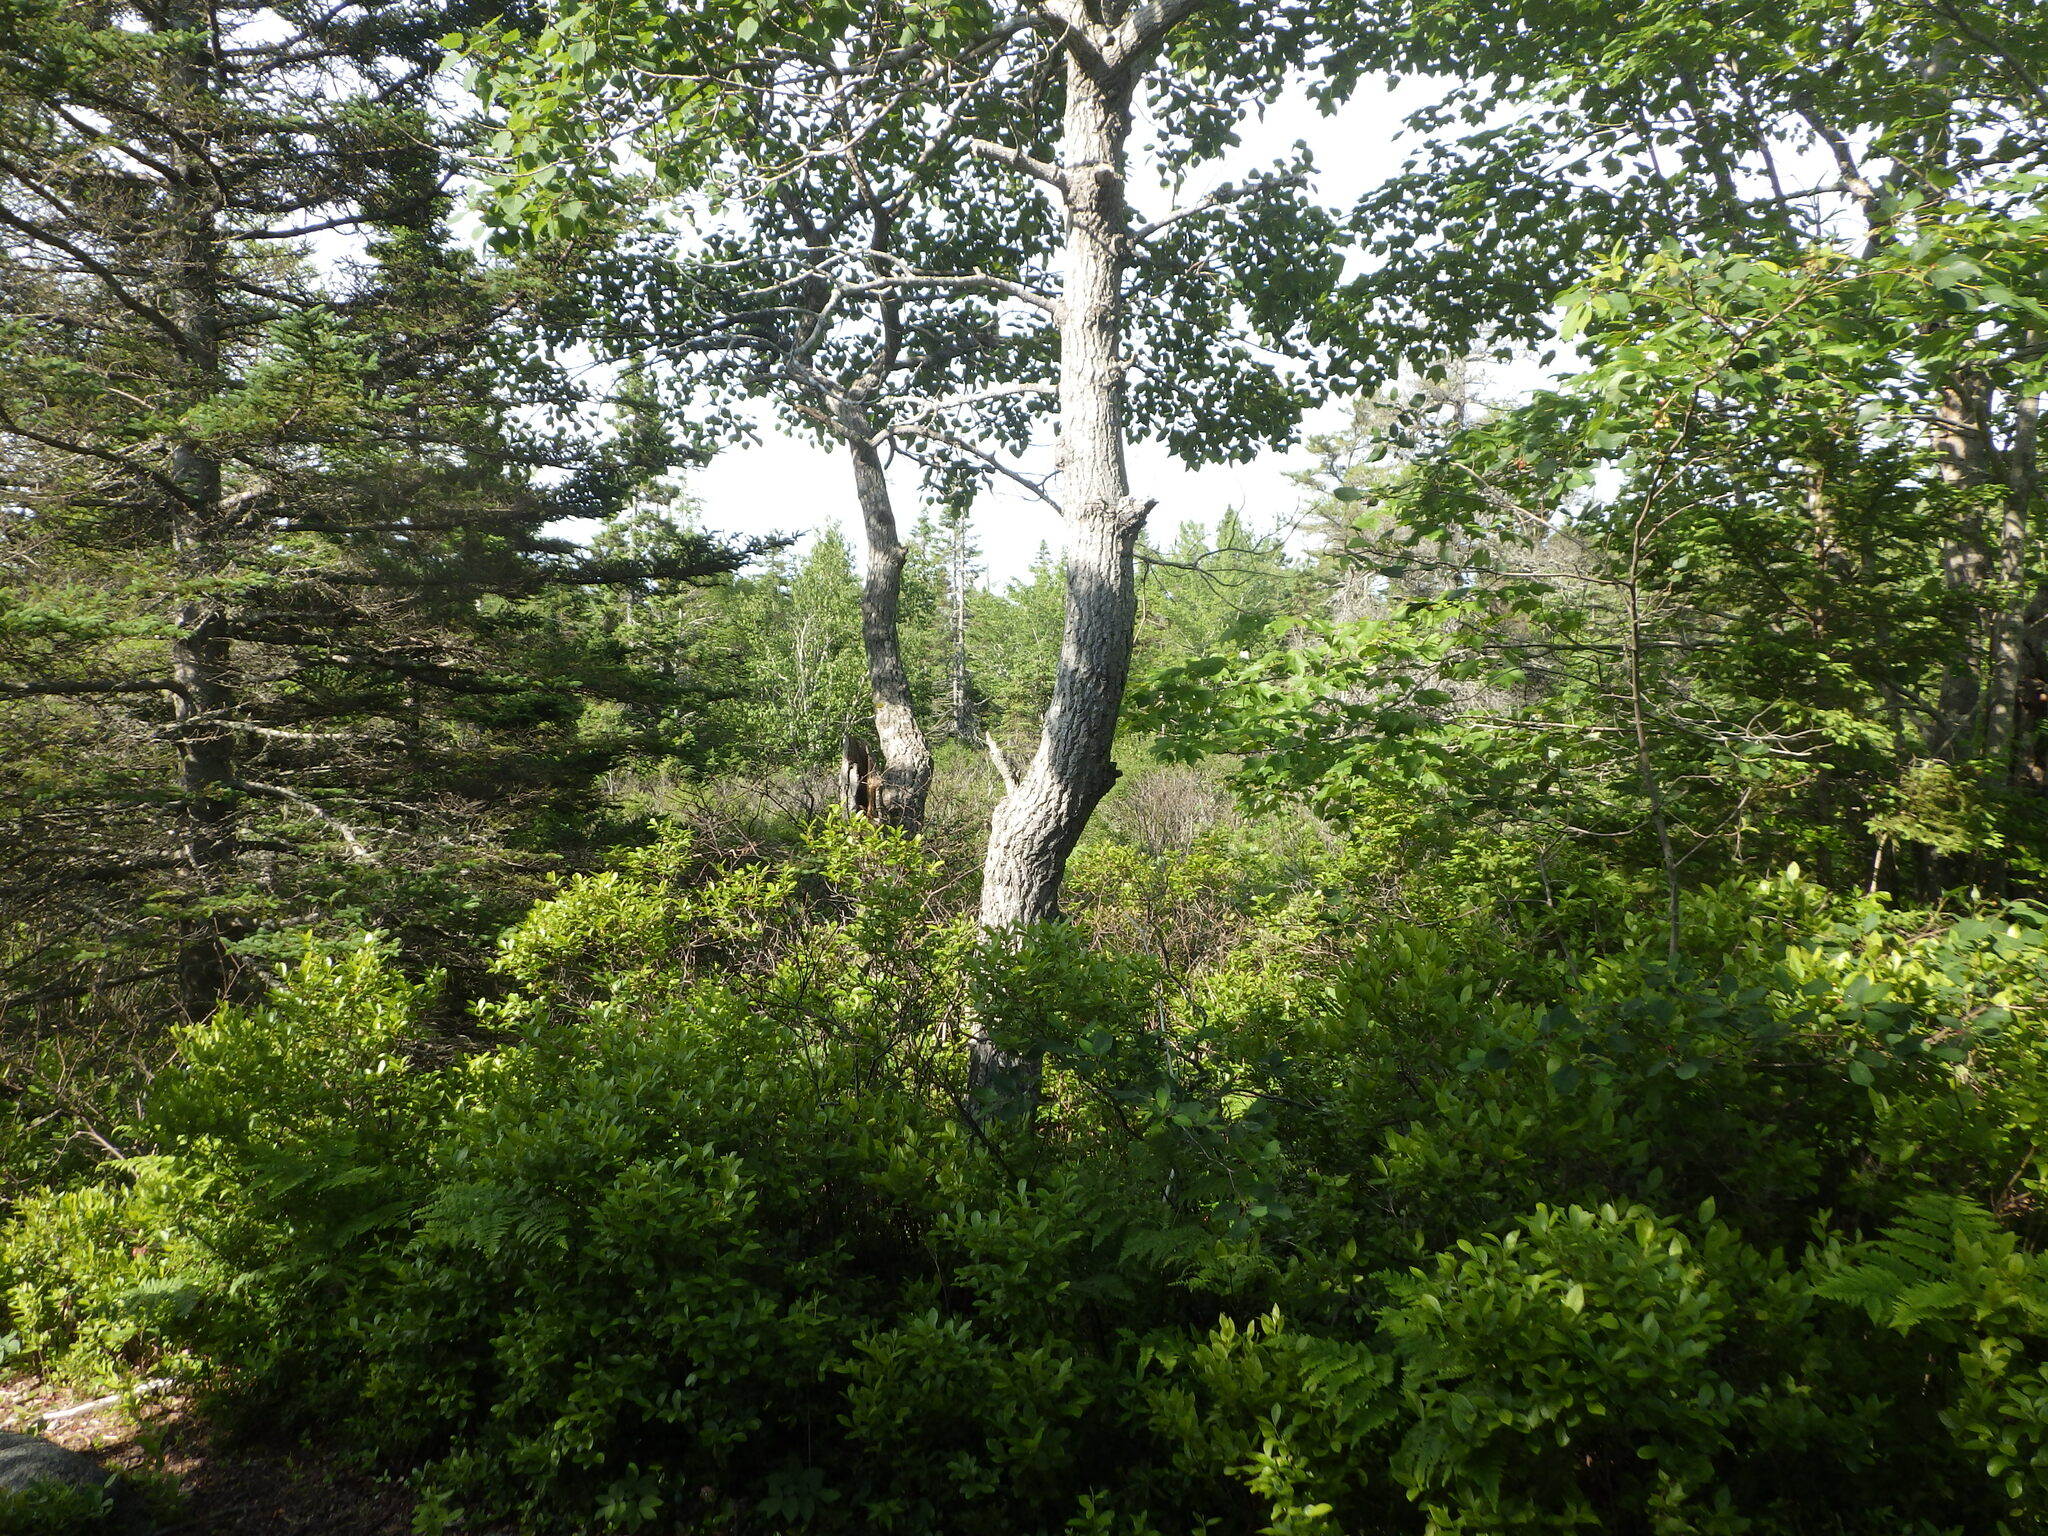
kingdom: Plantae
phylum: Tracheophyta
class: Magnoliopsida
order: Malpighiales
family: Salicaceae
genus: Populus
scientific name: Populus grandidentata
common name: Bigtooth aspen
